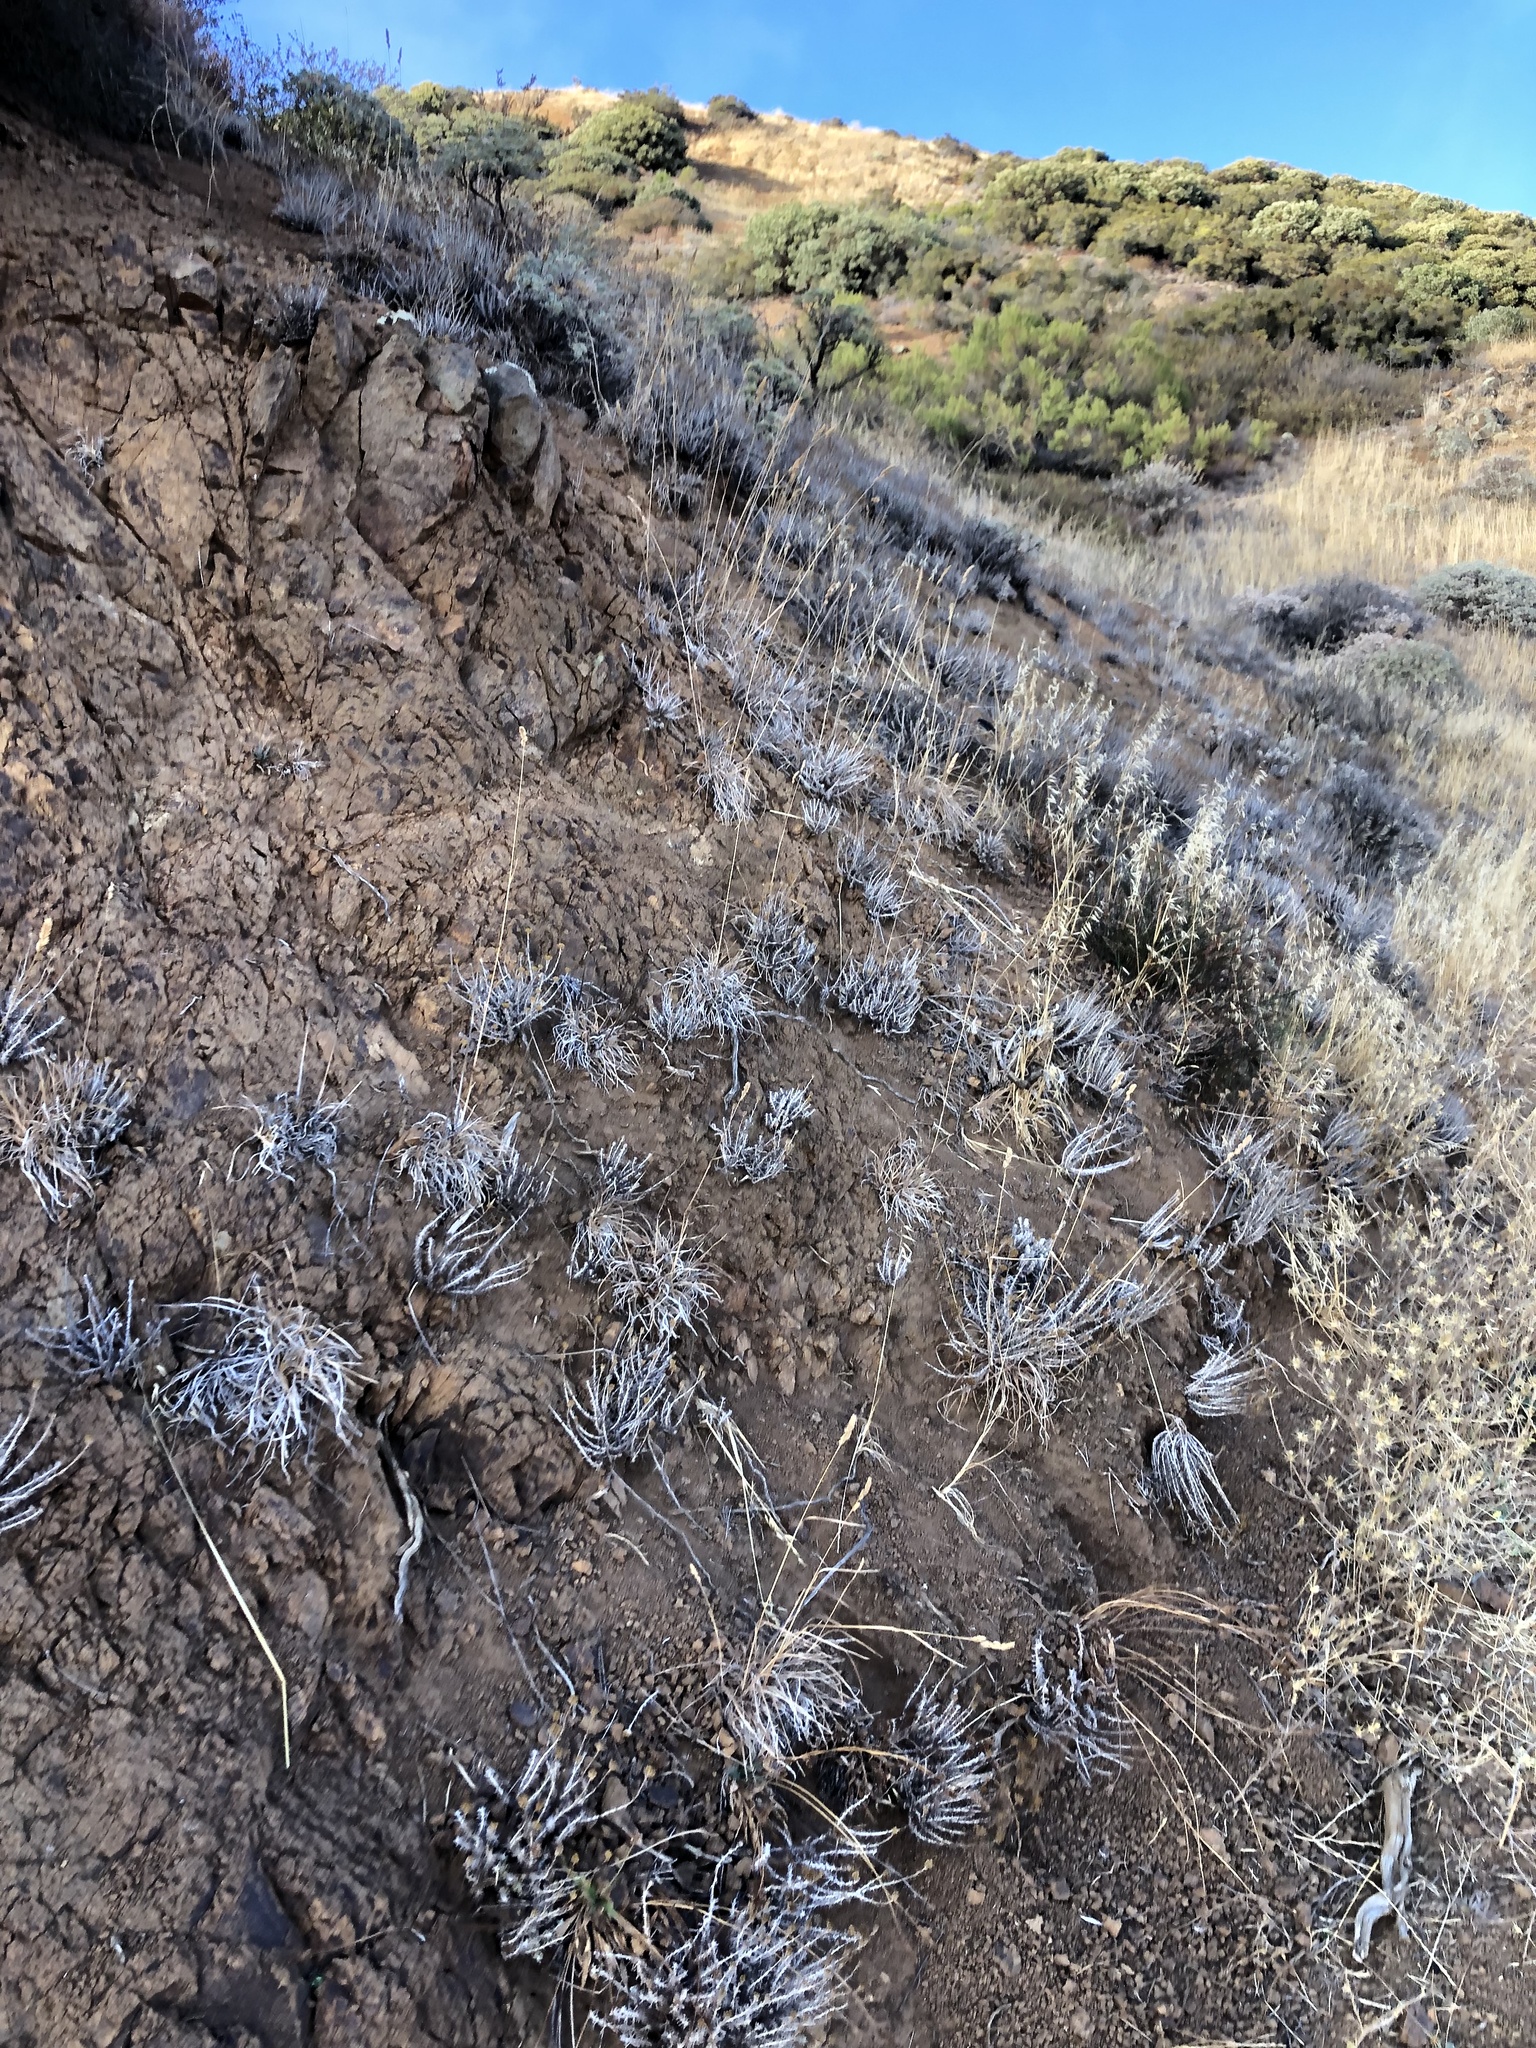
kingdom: Plantae
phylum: Tracheophyta
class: Liliopsida
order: Poales
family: Poaceae
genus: Dactylis
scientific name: Dactylis glomerata
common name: Orchardgrass
